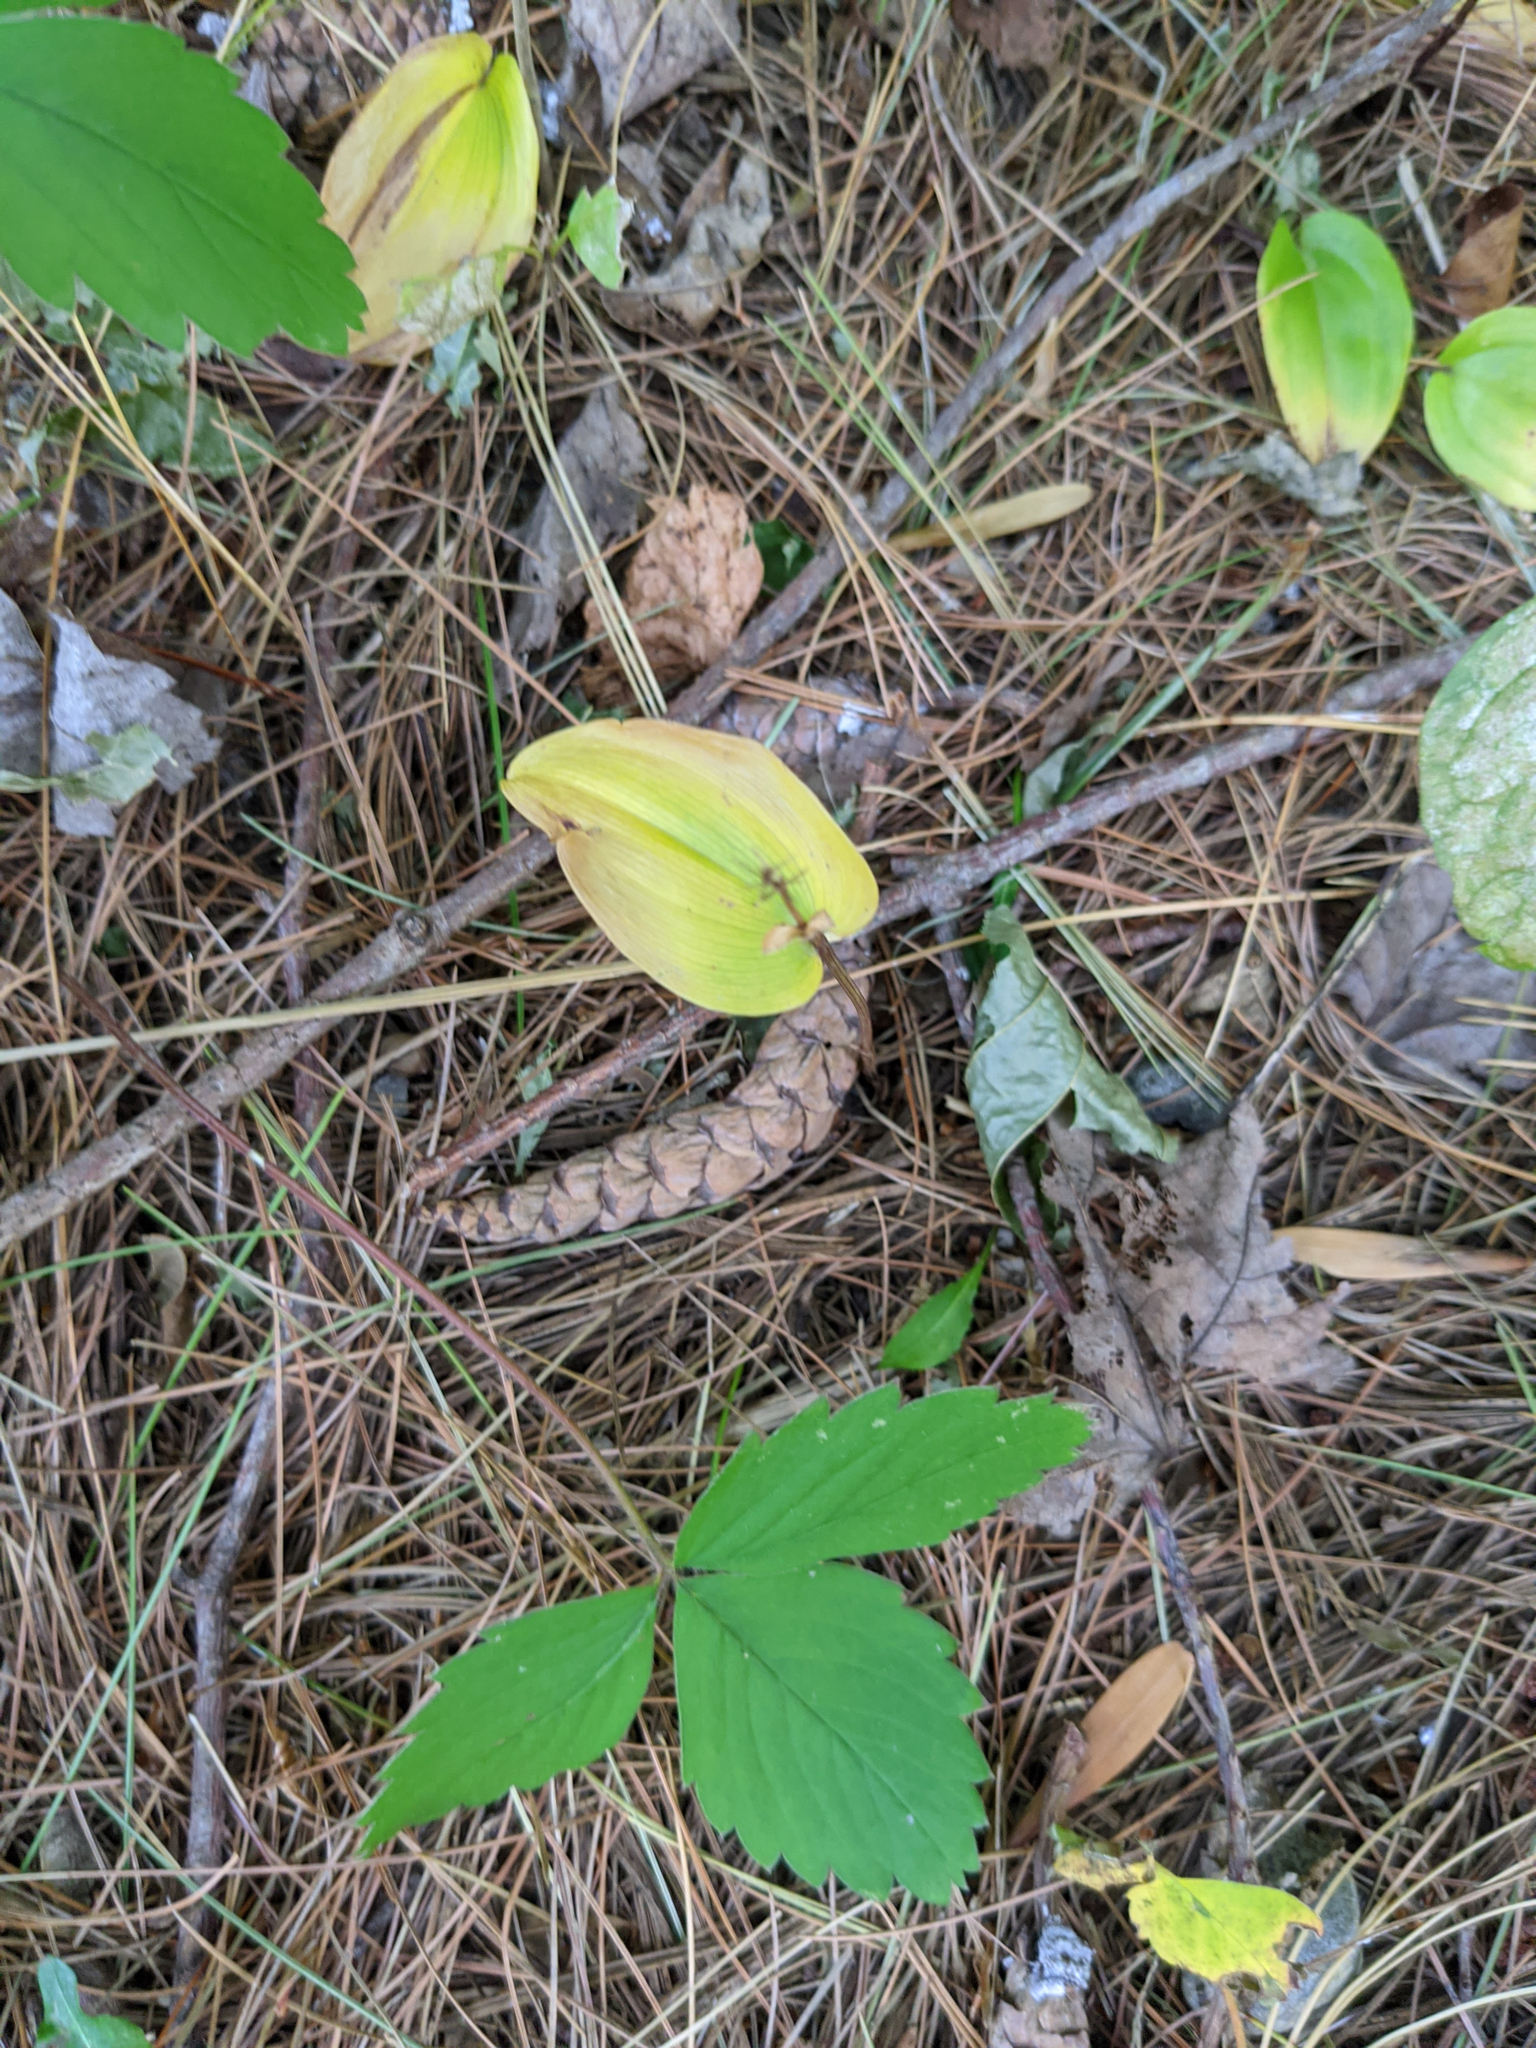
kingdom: Plantae
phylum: Tracheophyta
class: Liliopsida
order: Asparagales
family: Asparagaceae
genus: Maianthemum
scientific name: Maianthemum canadense
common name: False lily-of-the-valley
